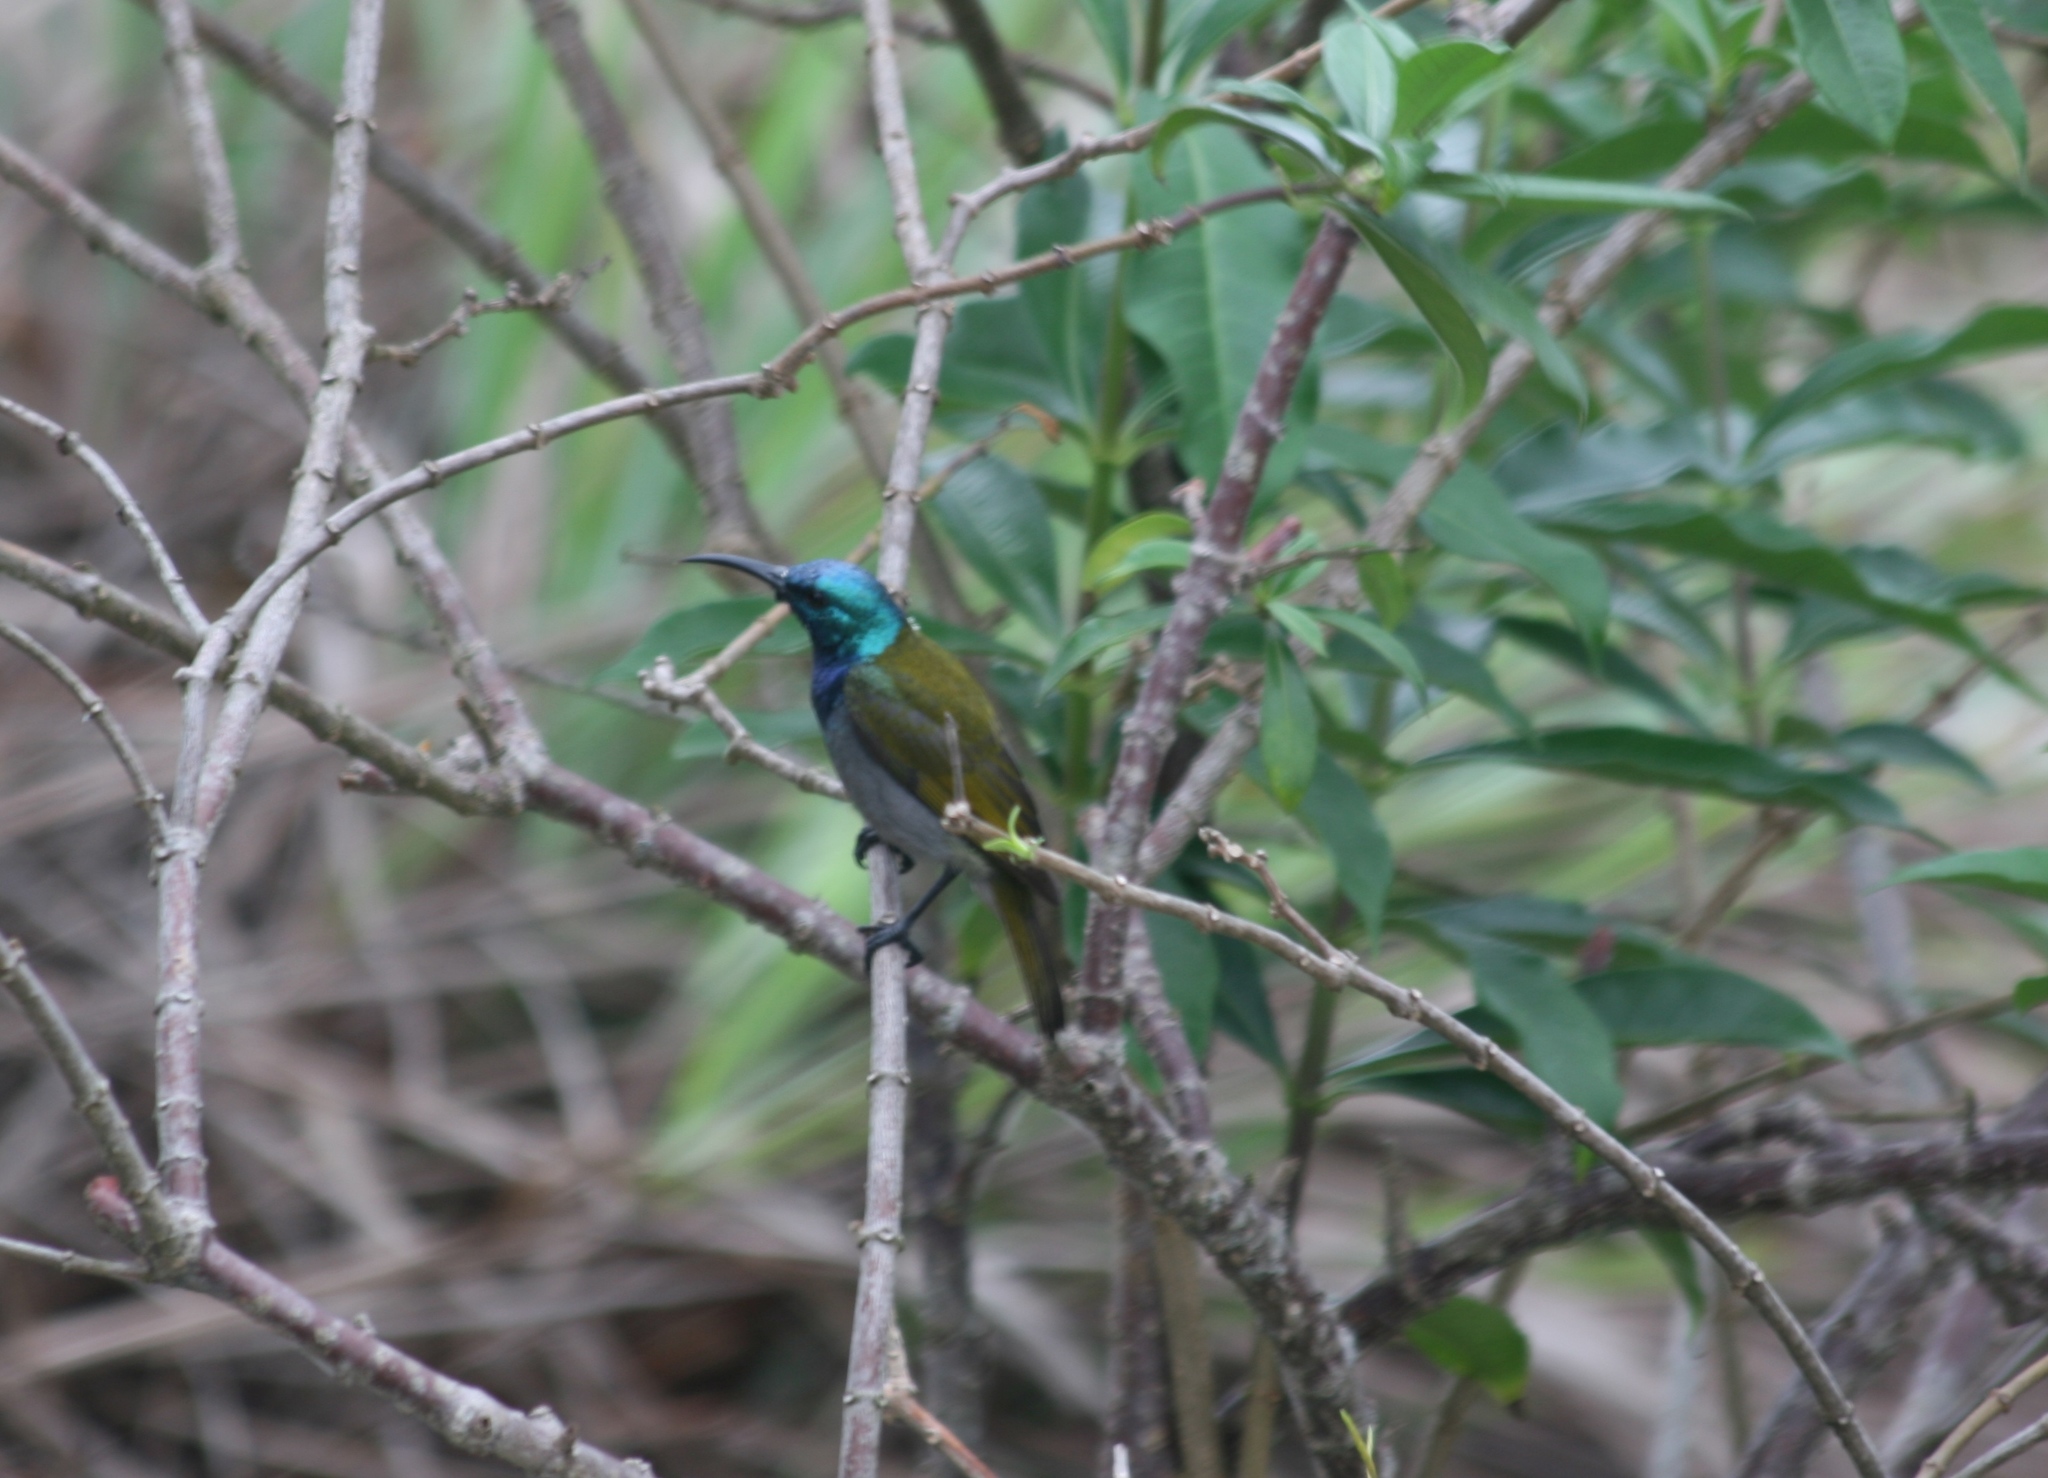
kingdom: Animalia
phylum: Chordata
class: Aves
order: Passeriformes
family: Nectariniidae
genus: Cyanomitra
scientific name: Cyanomitra verticalis
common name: Green-headed sunbird
